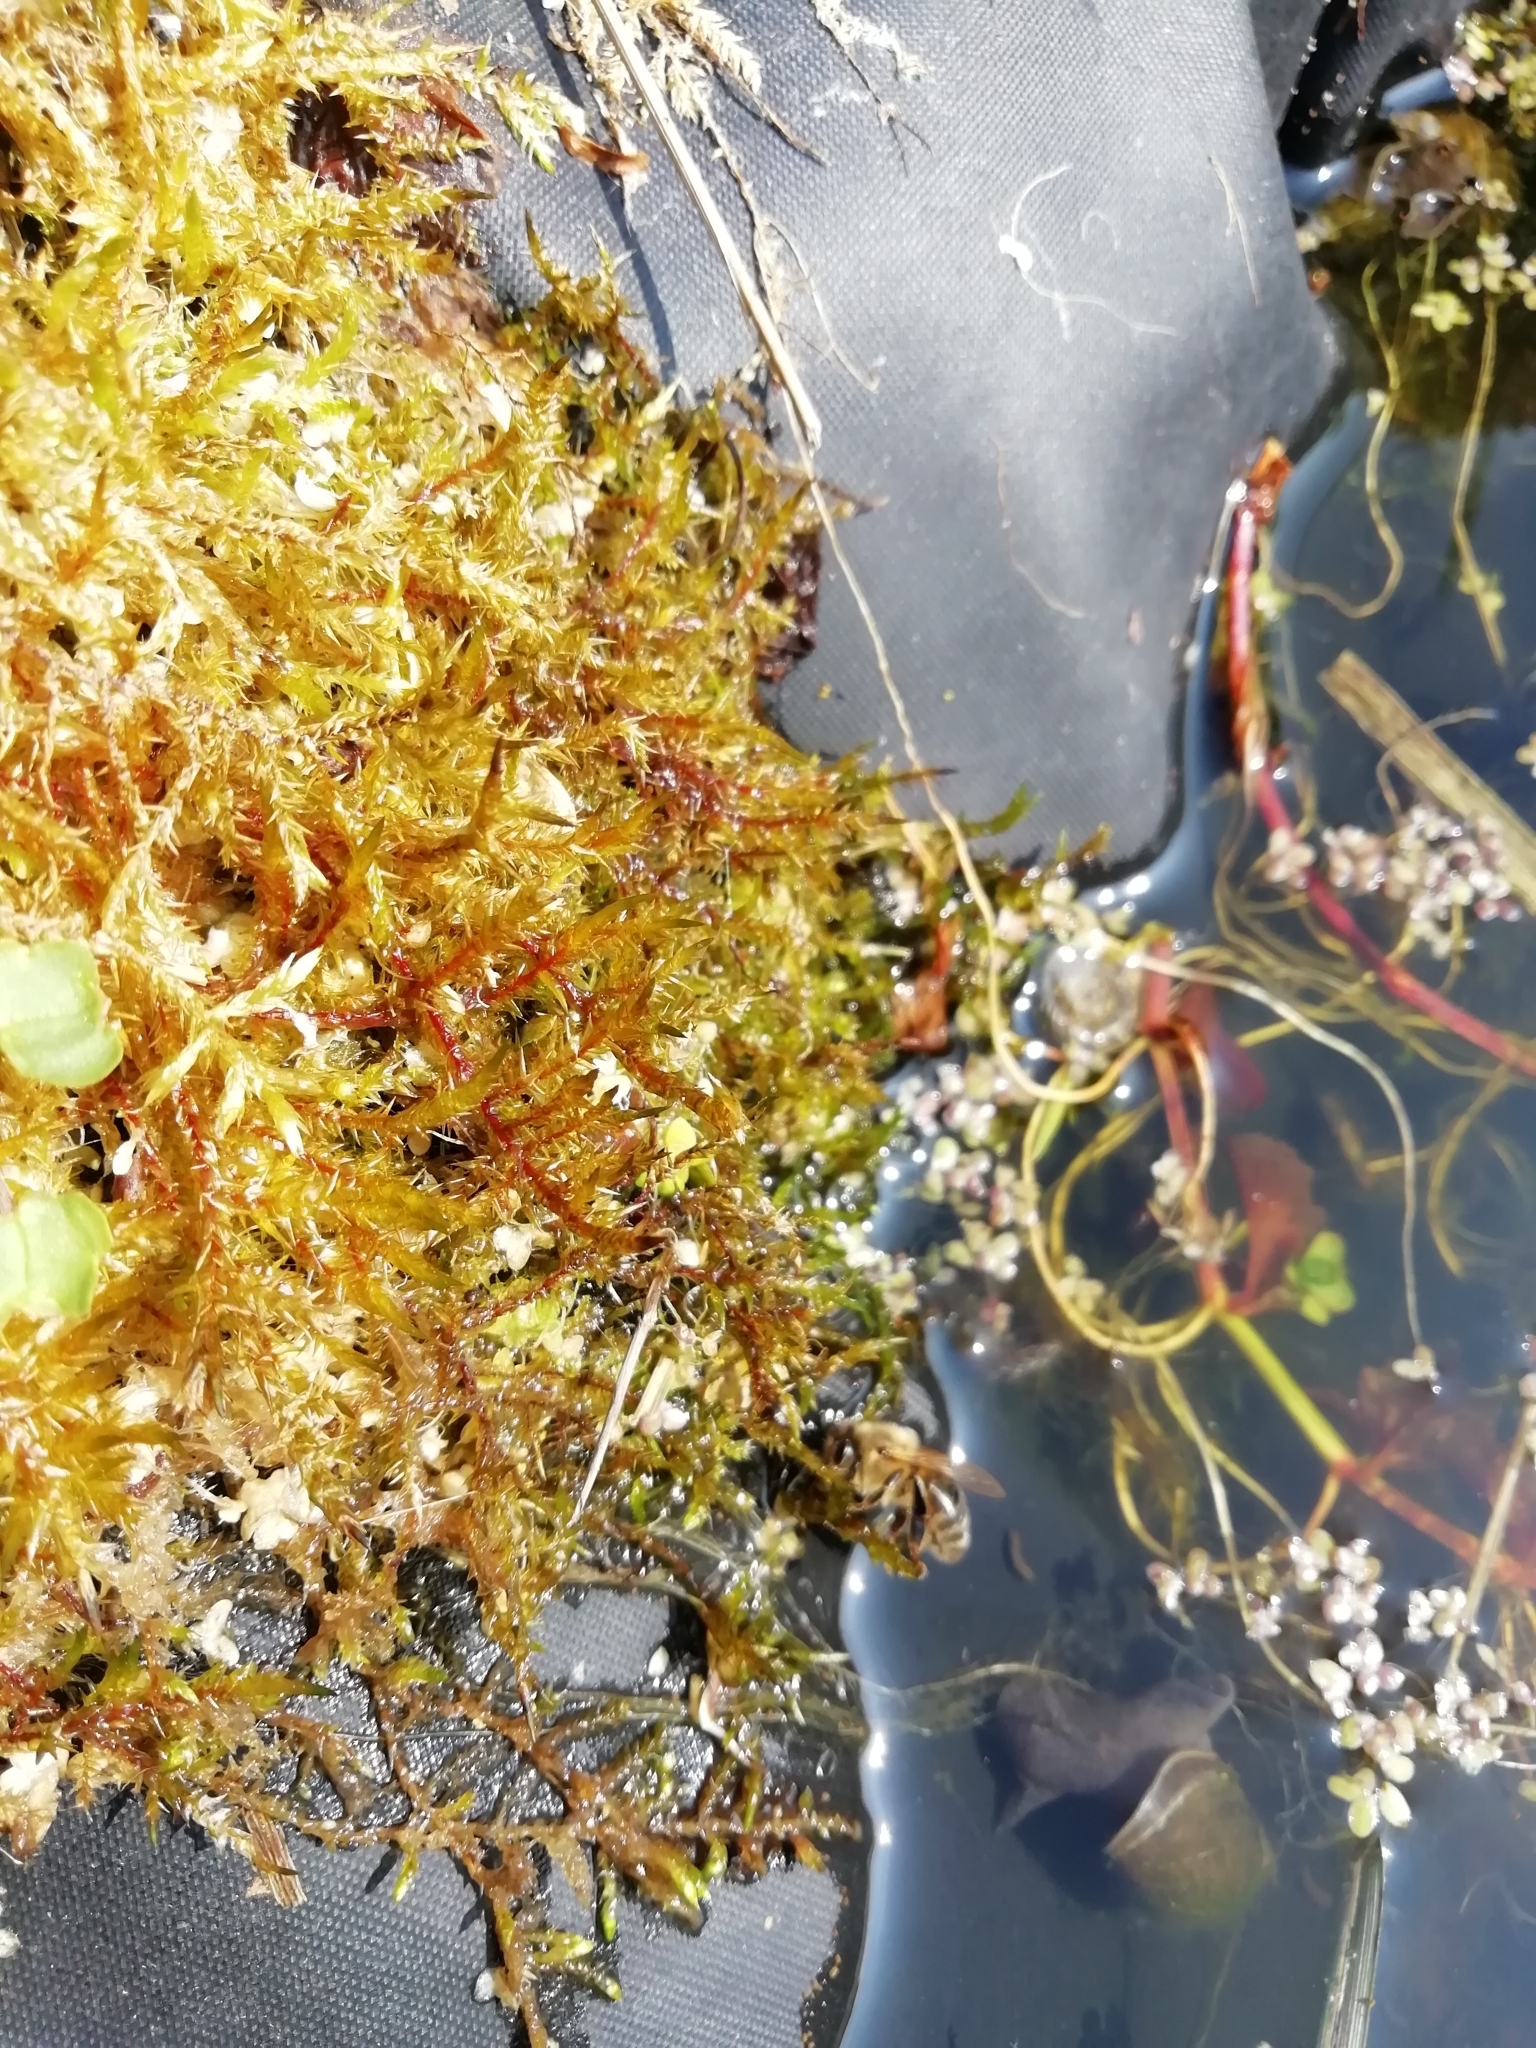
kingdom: Plantae
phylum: Bryophyta
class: Bryopsida
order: Hypnales
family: Pylaisiaceae
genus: Calliergonella
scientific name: Calliergonella cuspidata
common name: Common large wetland moss
